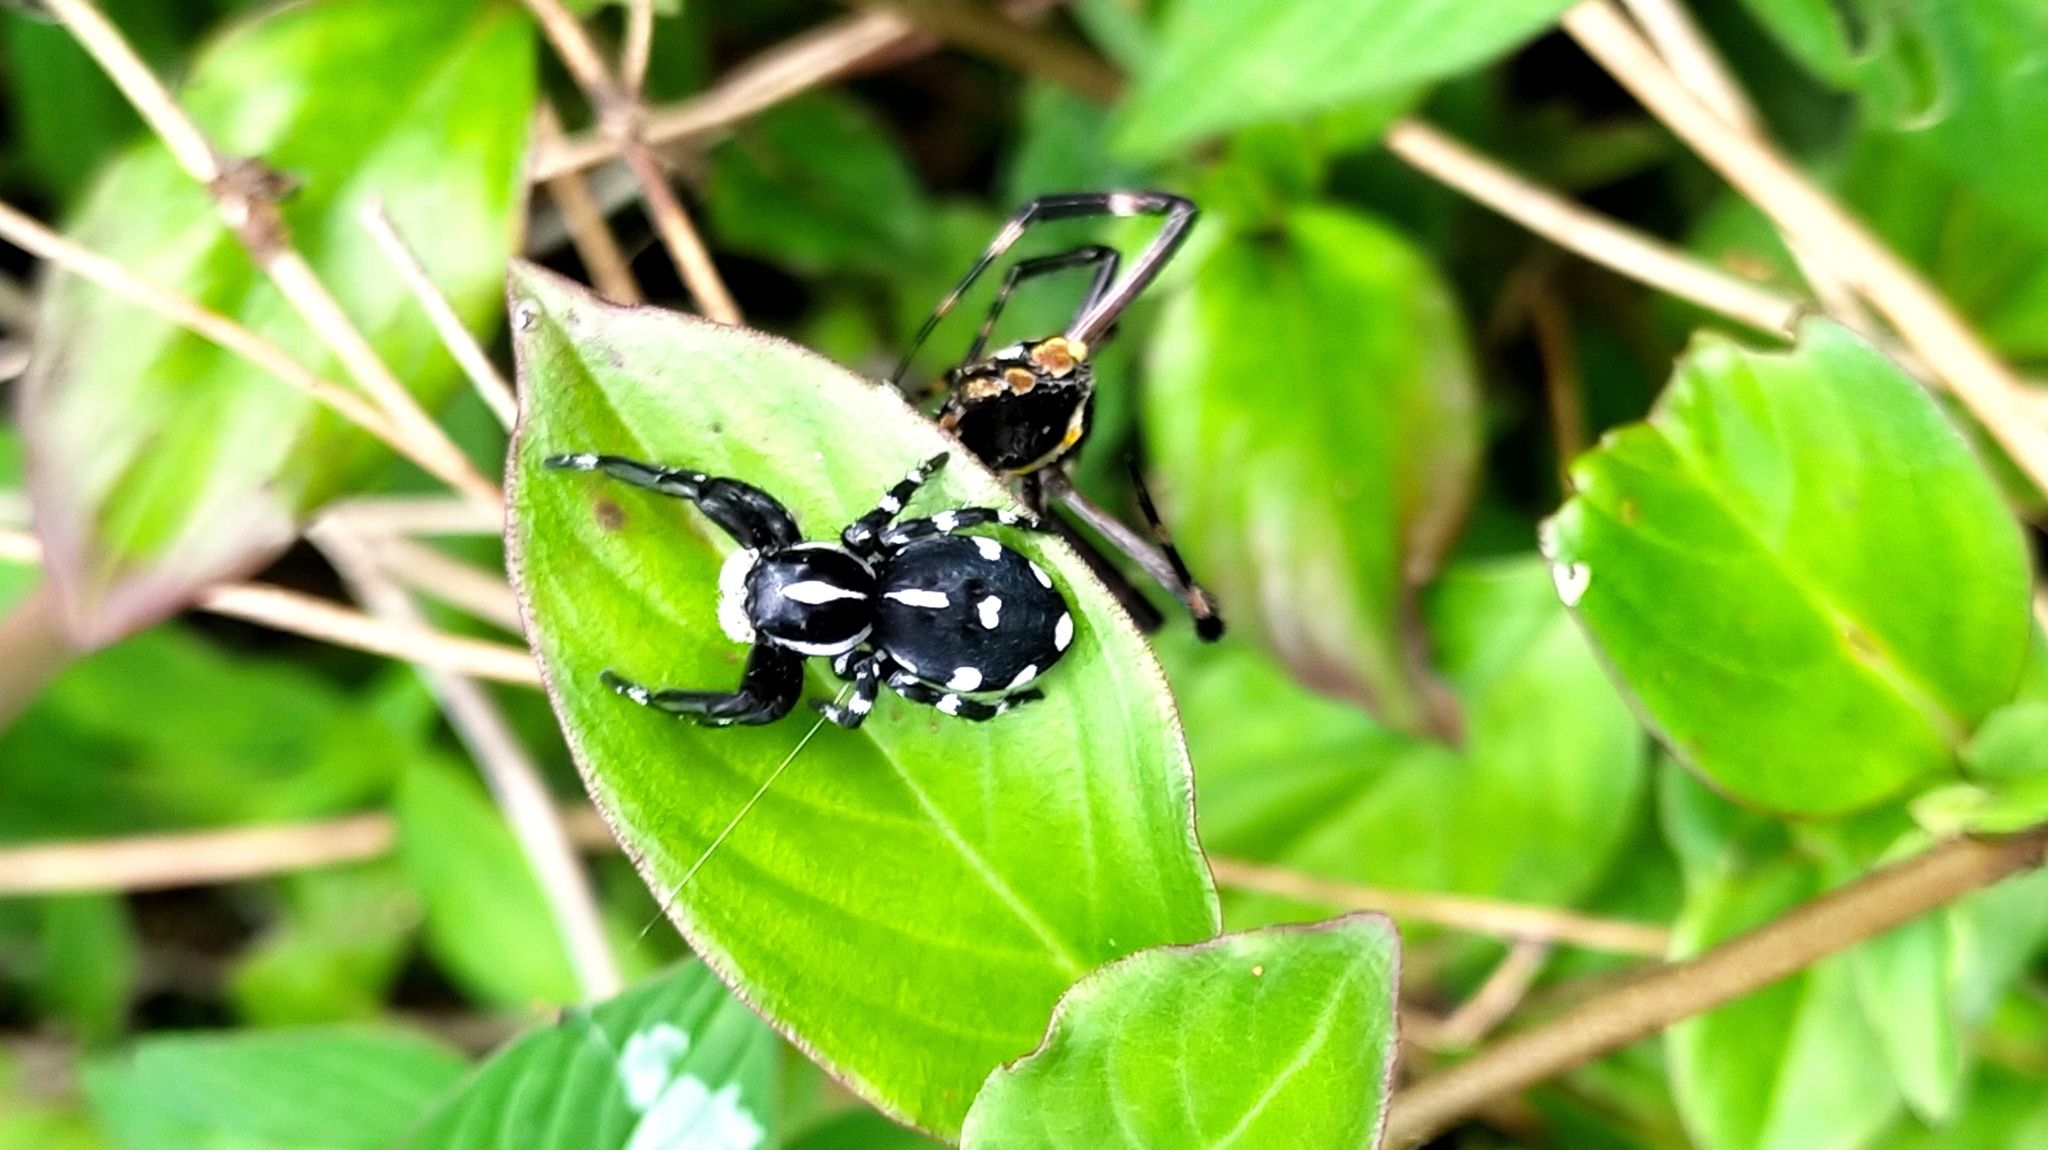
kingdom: Animalia
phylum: Arthropoda
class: Arachnida
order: Araneae
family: Salticidae
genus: Phiale
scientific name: Phiale guttata
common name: Jumping spiders
